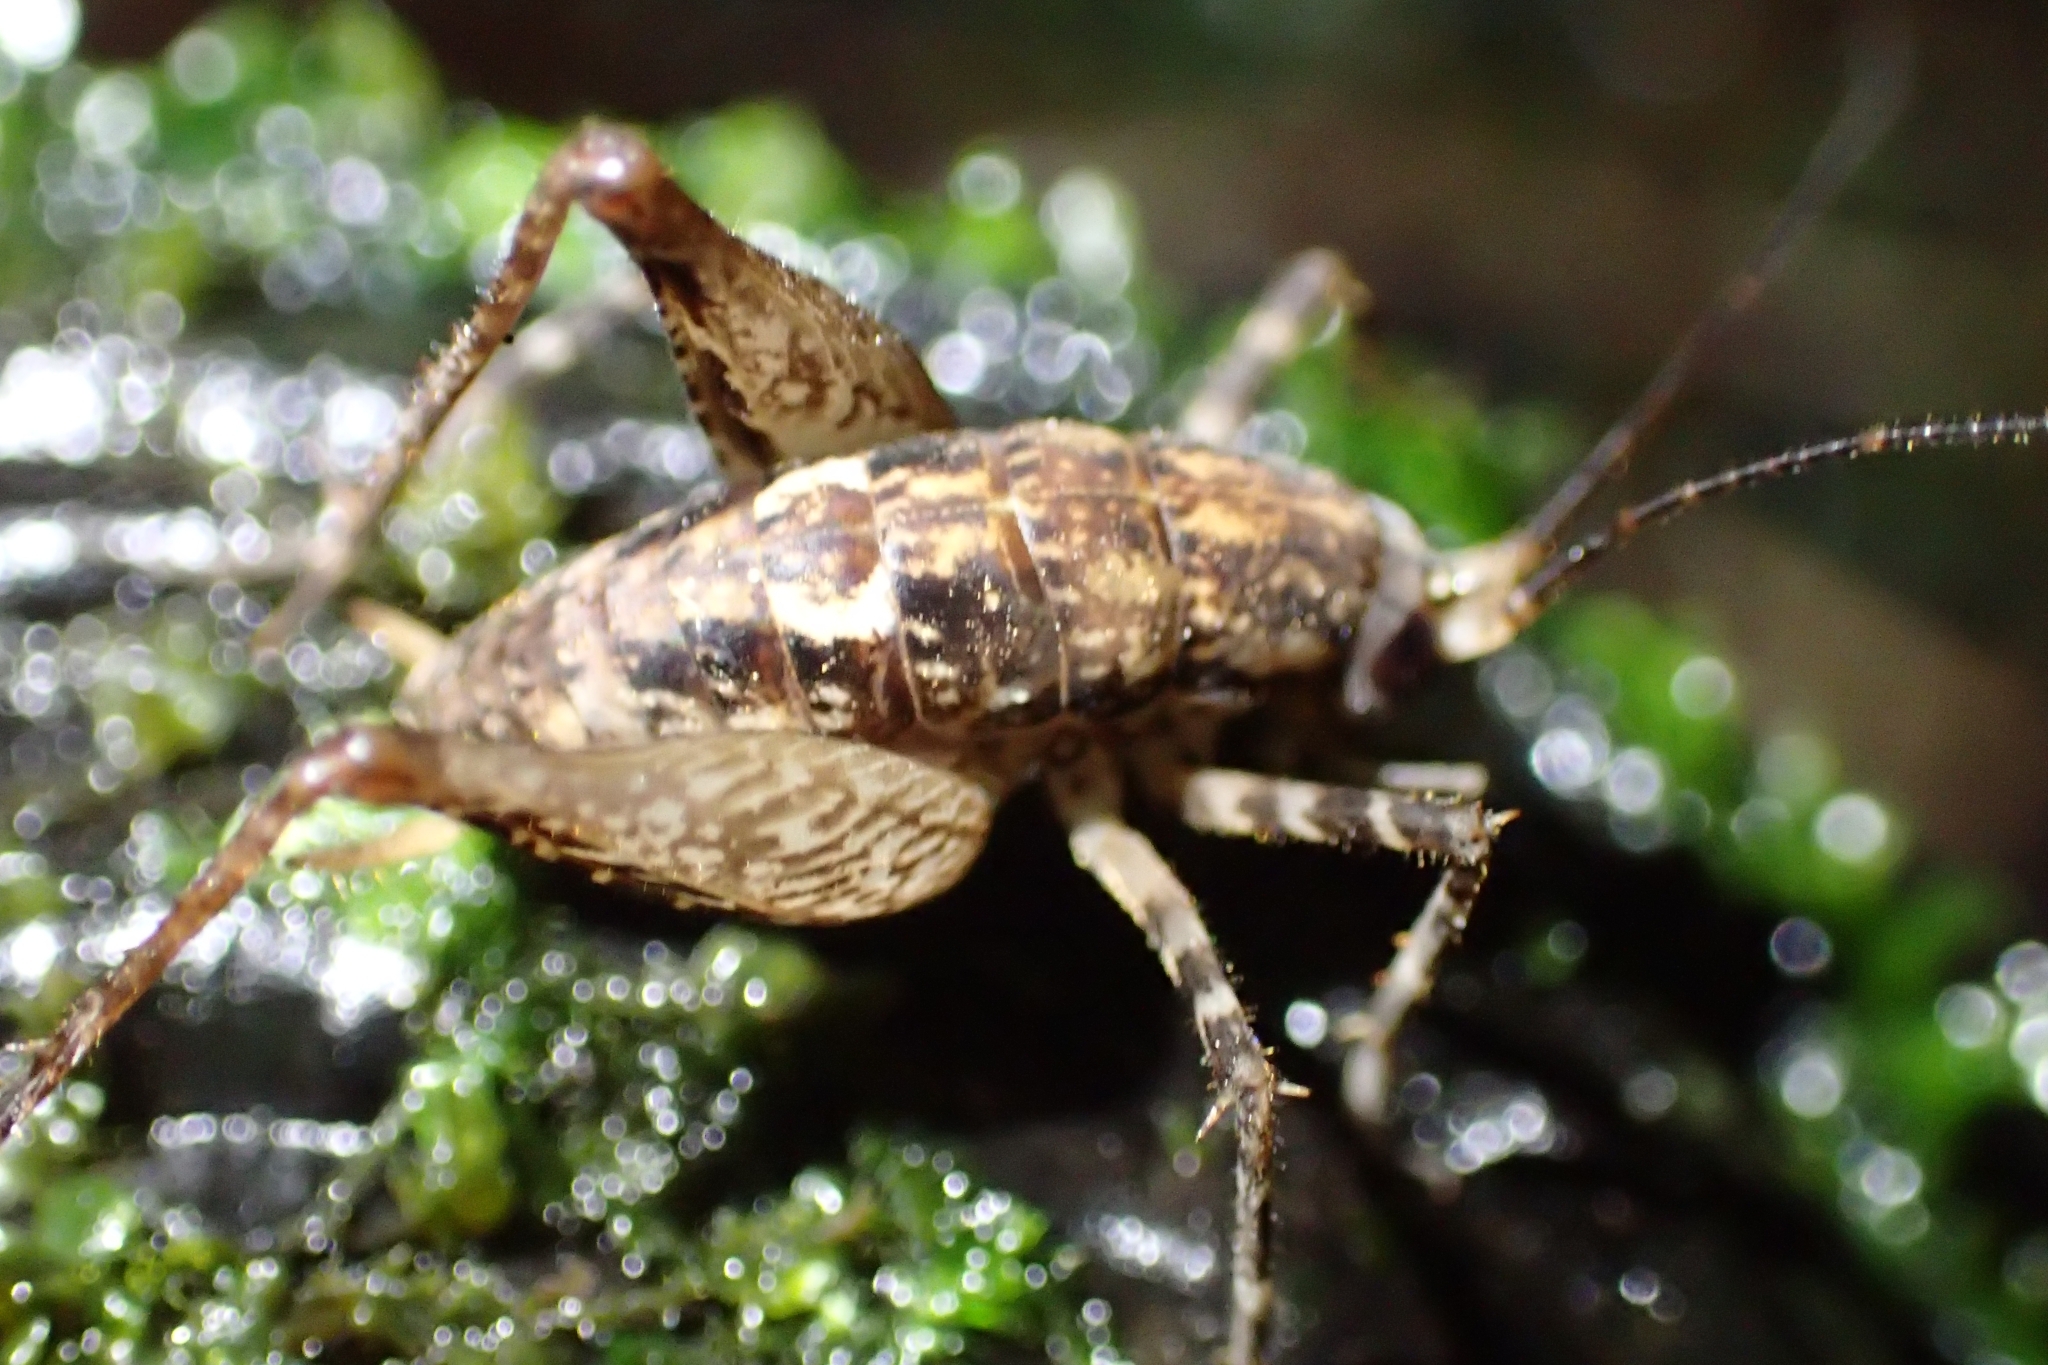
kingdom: Animalia
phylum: Arthropoda
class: Insecta
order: Orthoptera
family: Rhaphidophoridae
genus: Pleioplectron
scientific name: Pleioplectron hudsoni
